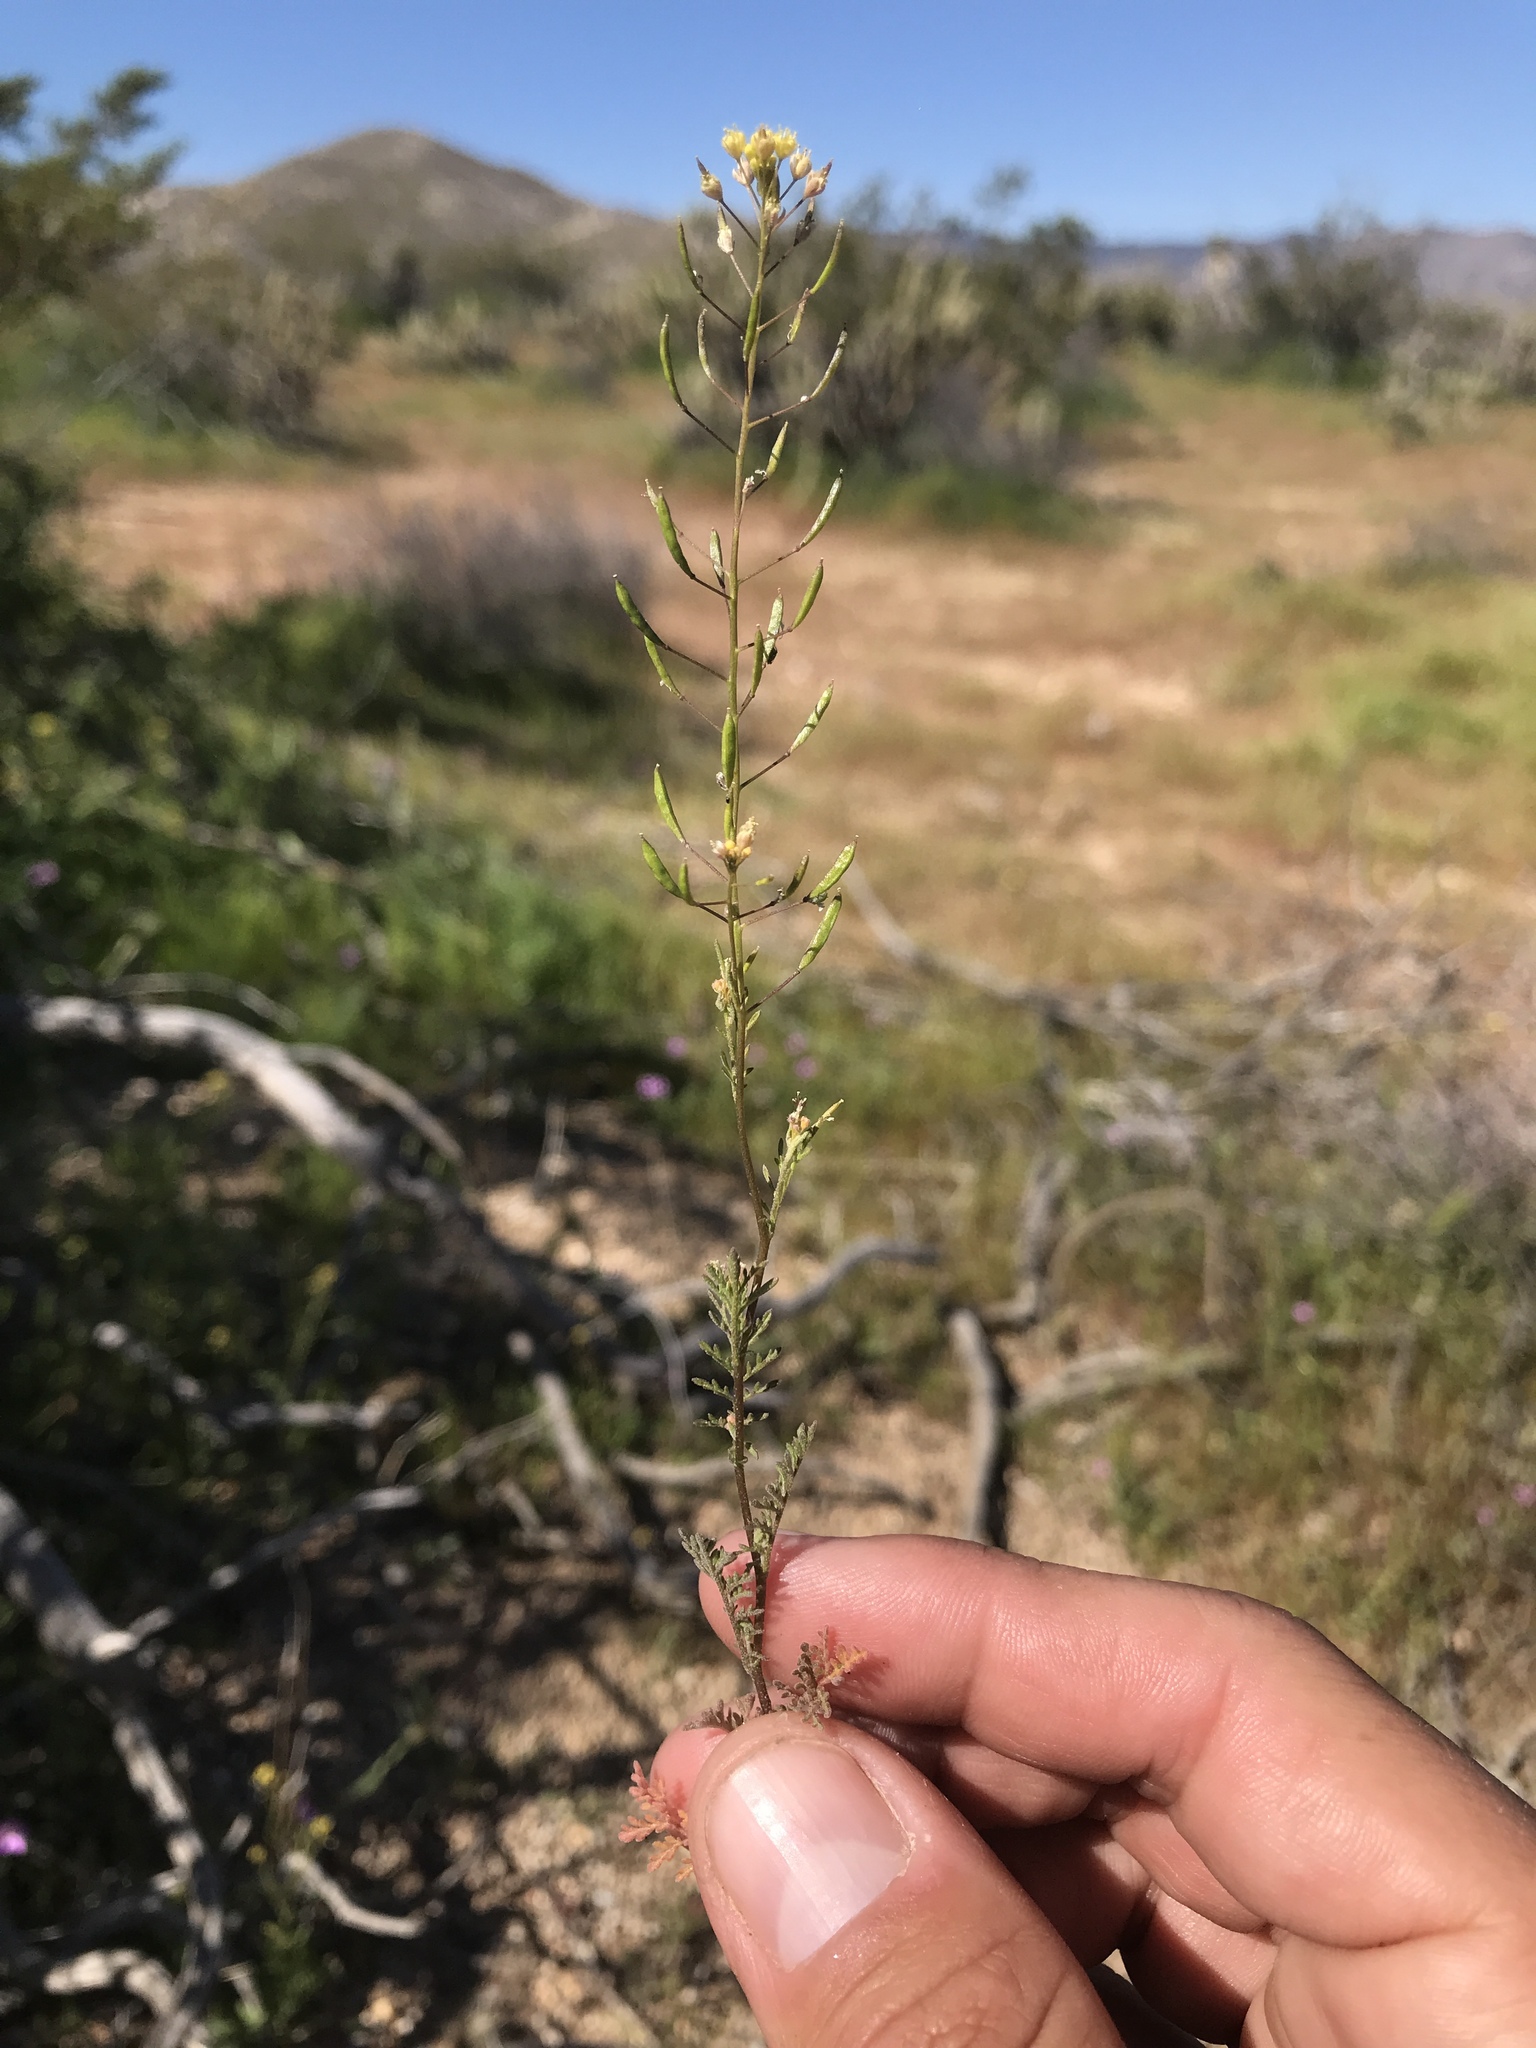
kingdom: Plantae
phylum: Tracheophyta
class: Magnoliopsida
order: Brassicales
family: Brassicaceae
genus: Descurainia
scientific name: Descurainia pinnata
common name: Western tansy mustard
